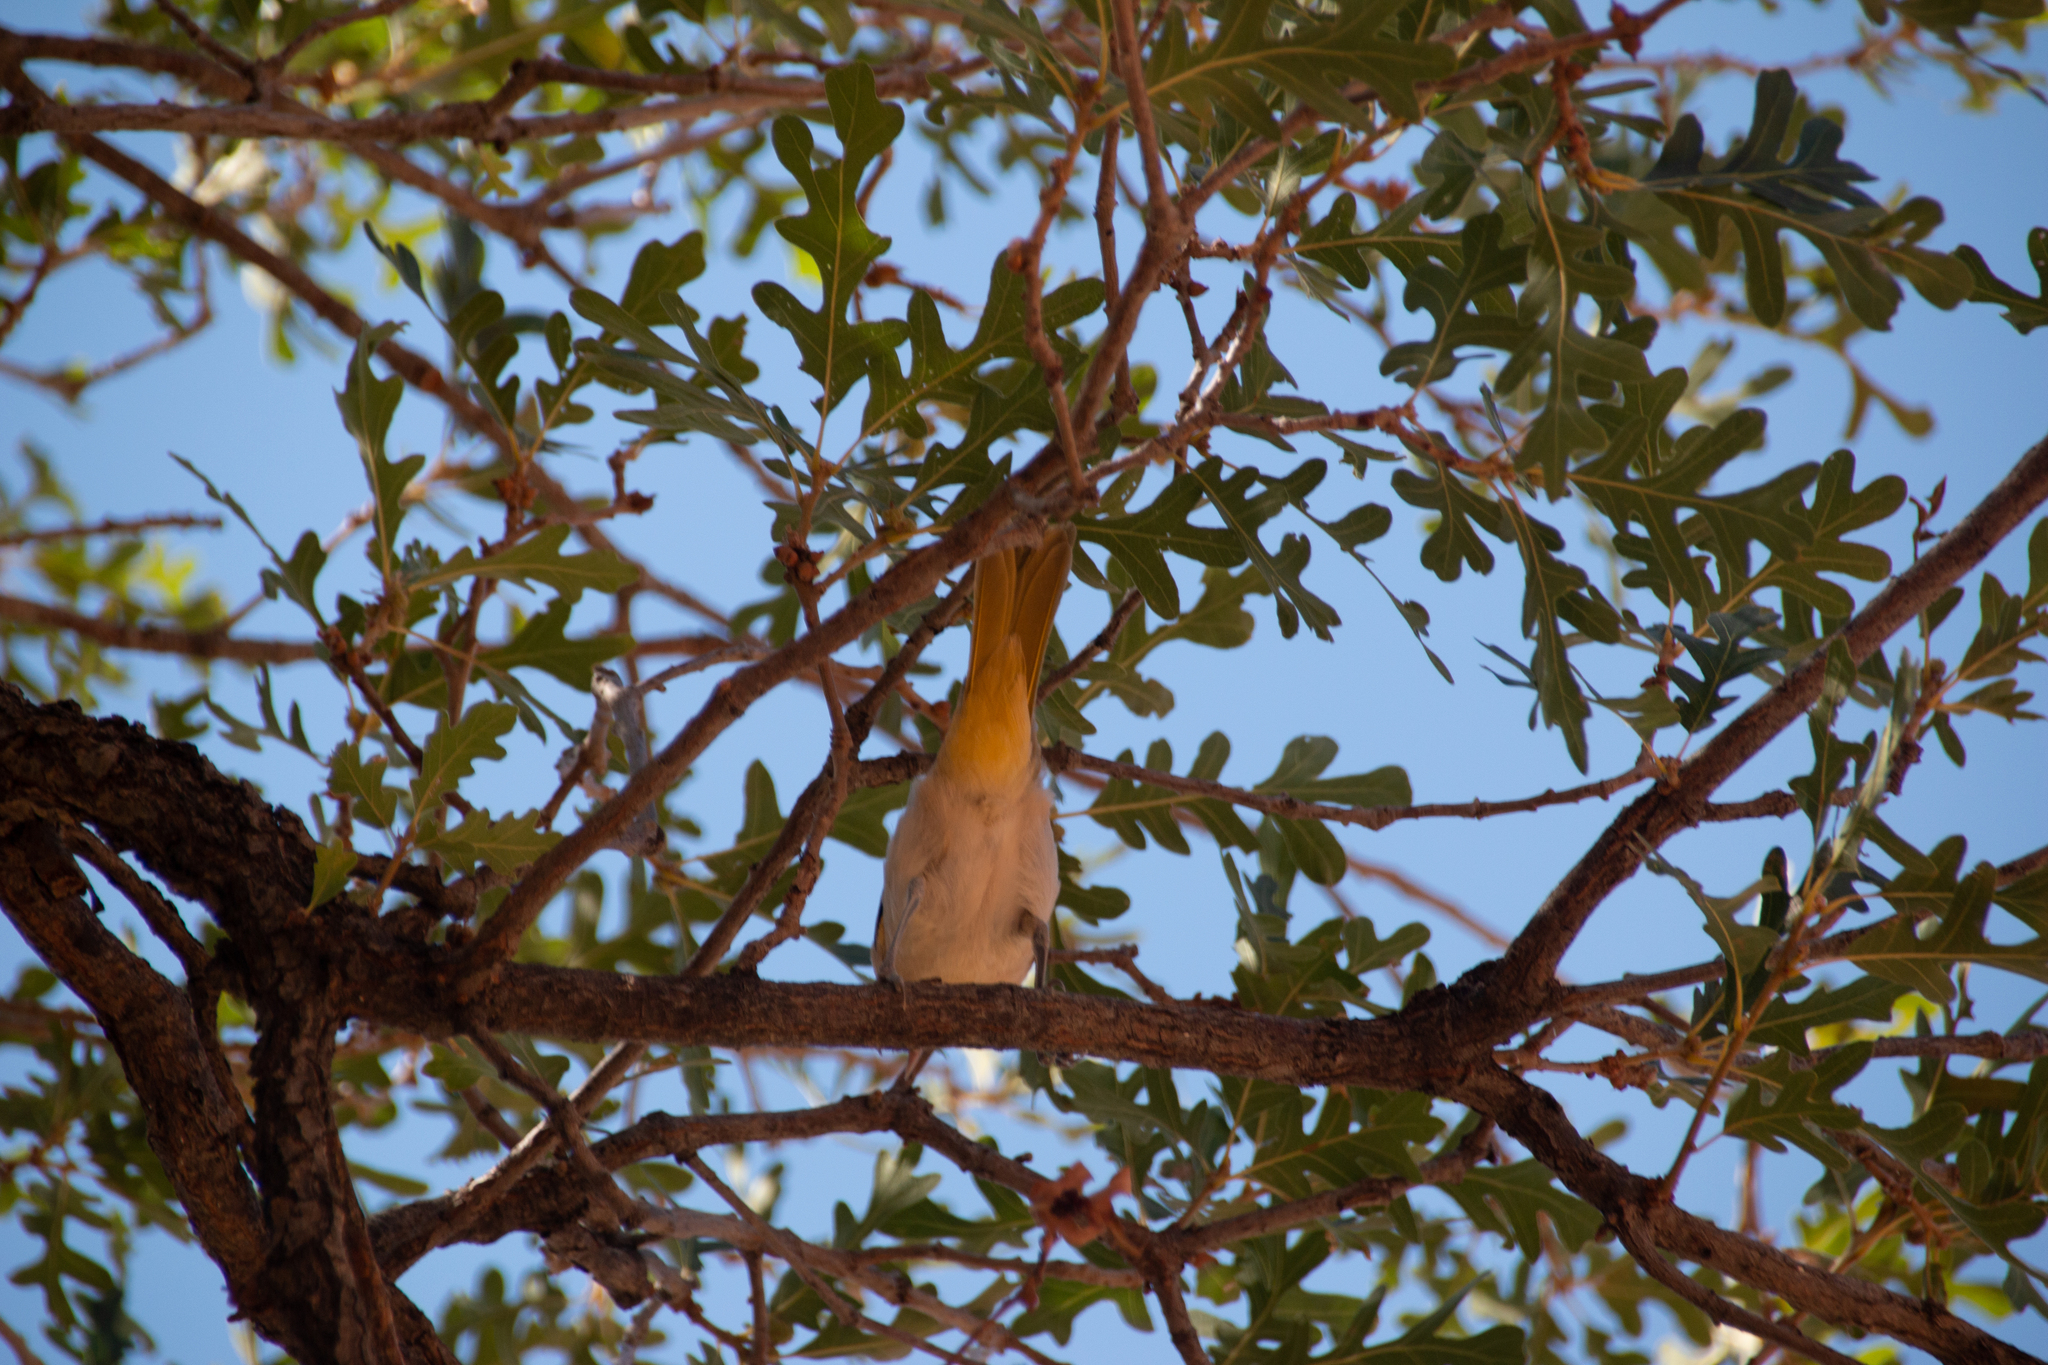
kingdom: Animalia
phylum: Chordata
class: Aves
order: Passeriformes
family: Icteridae
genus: Icterus
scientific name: Icterus bullockii
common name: Bullock's oriole
